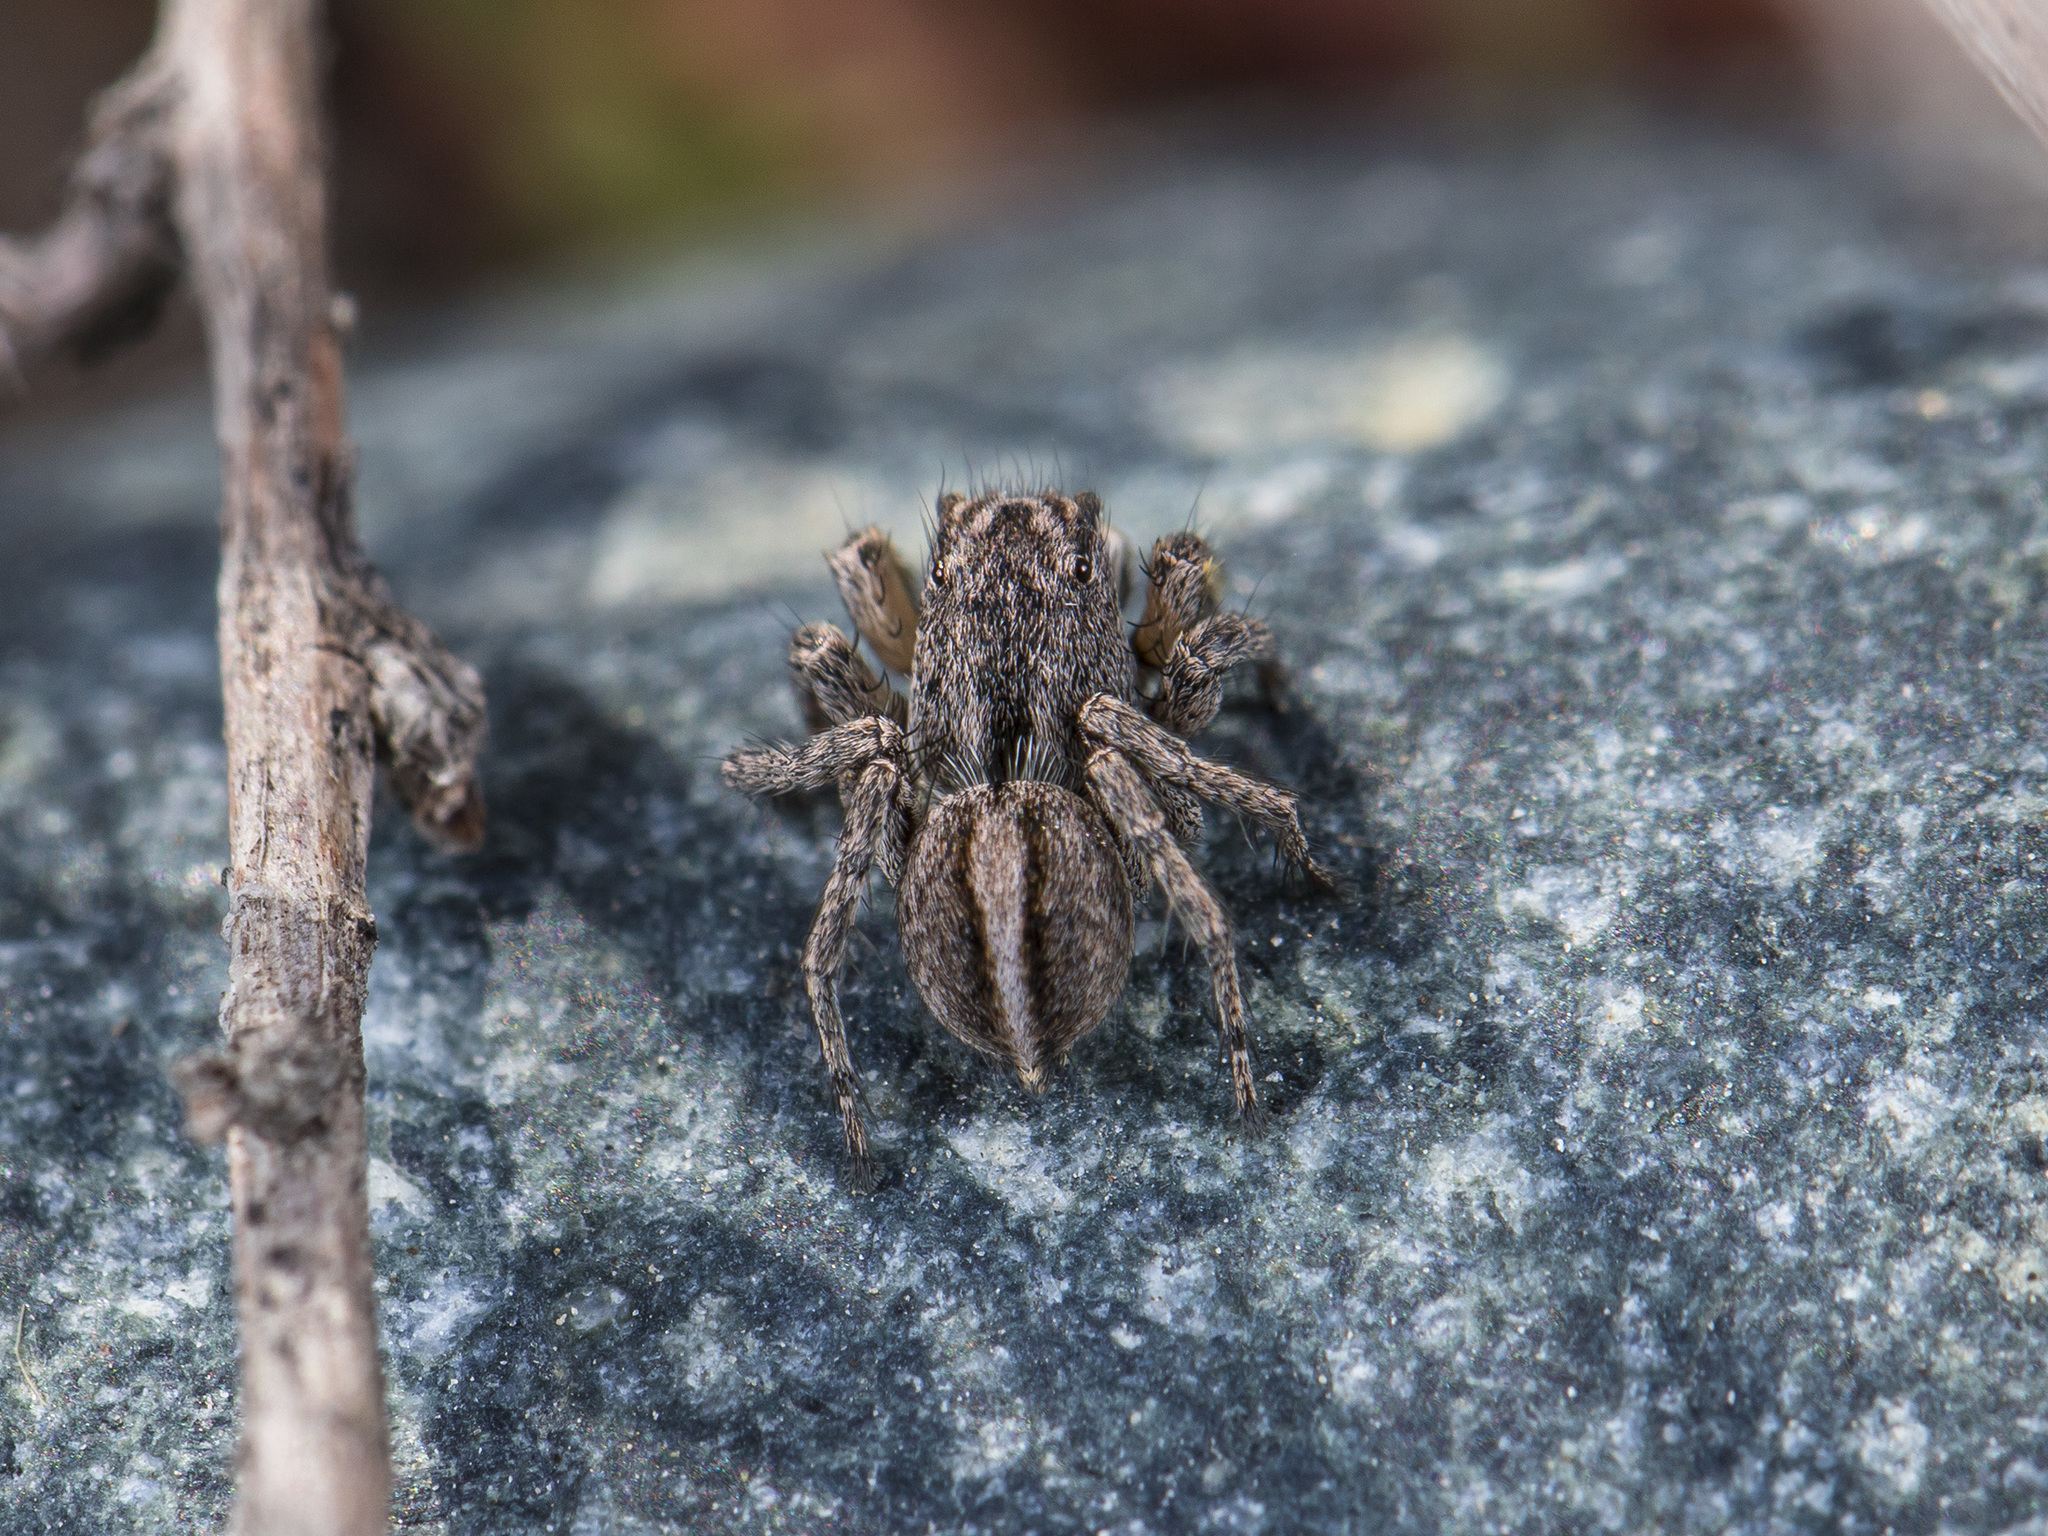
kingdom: Animalia
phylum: Arthropoda
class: Arachnida
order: Araneae
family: Salticidae
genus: Aelurillus
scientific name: Aelurillus v-insignitus
